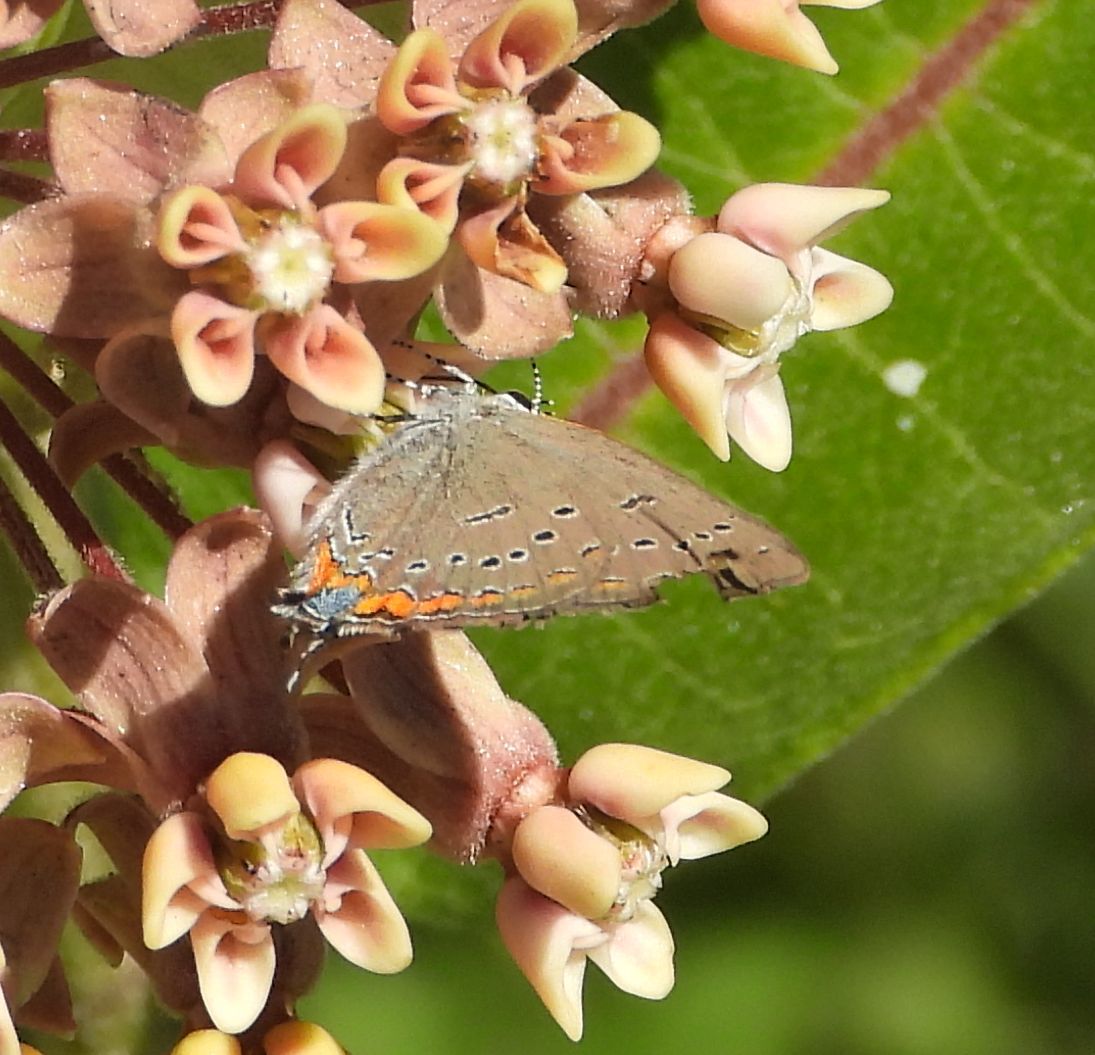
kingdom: Animalia
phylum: Arthropoda
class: Insecta
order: Lepidoptera
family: Lycaenidae
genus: Strymon
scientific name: Strymon acadica
